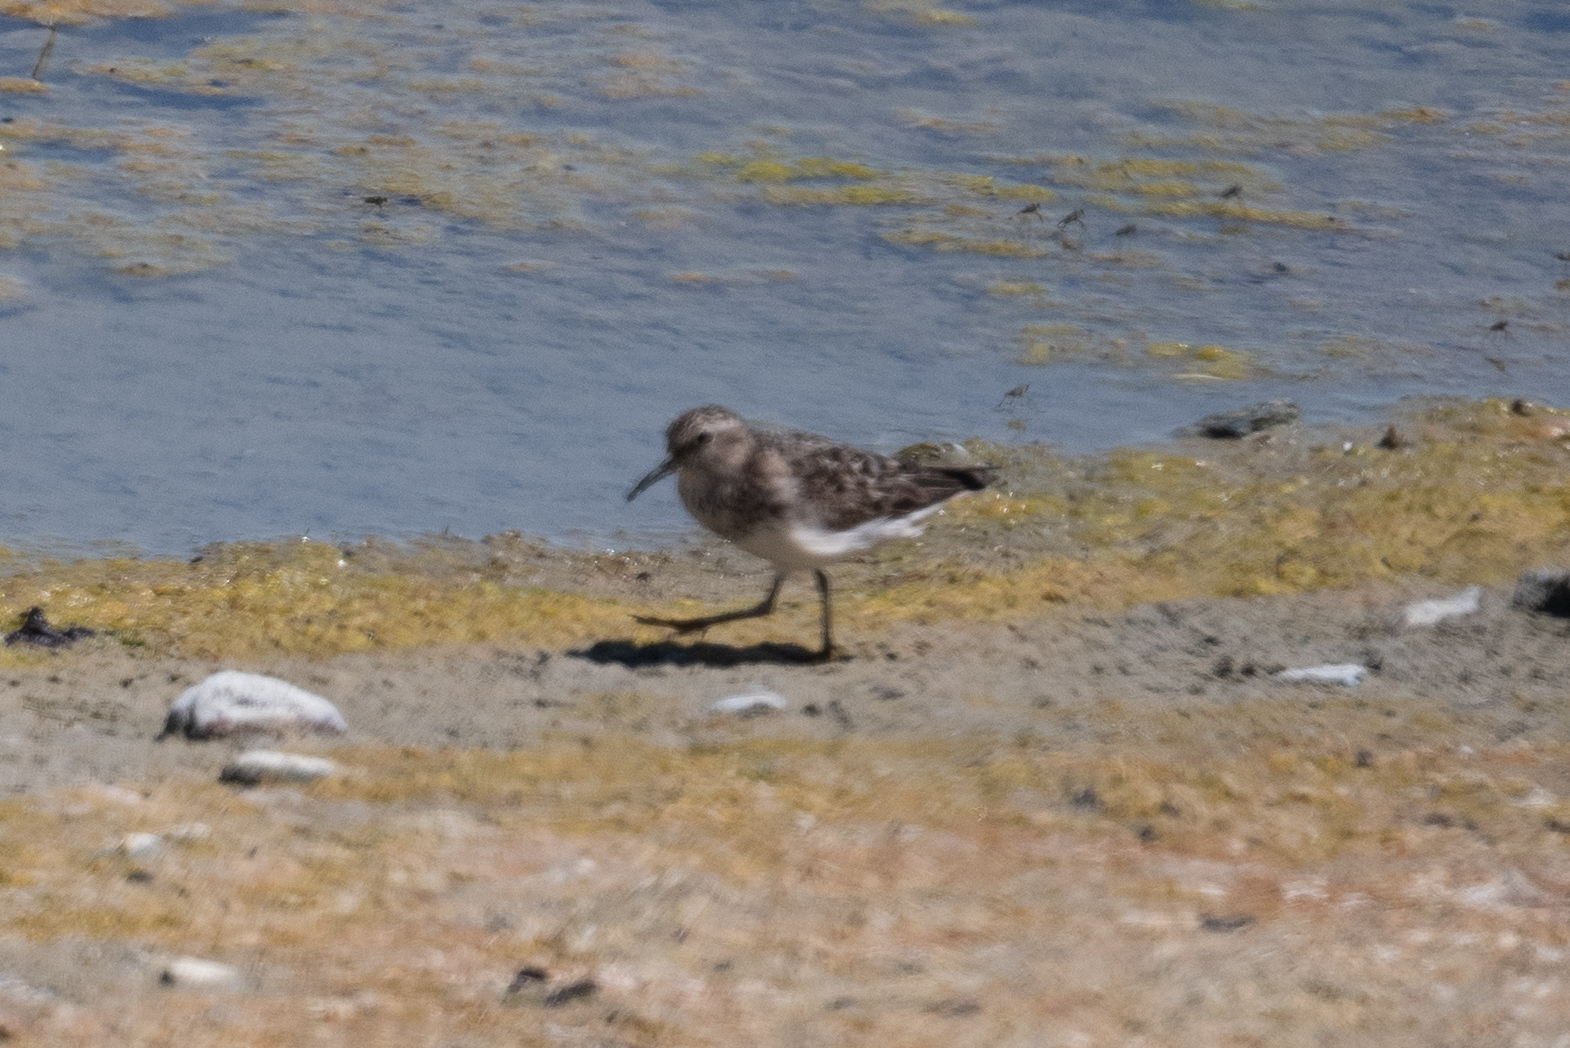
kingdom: Animalia
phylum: Chordata
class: Aves
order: Charadriiformes
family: Scolopacidae
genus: Calidris
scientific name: Calidris minutilla
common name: Least sandpiper
